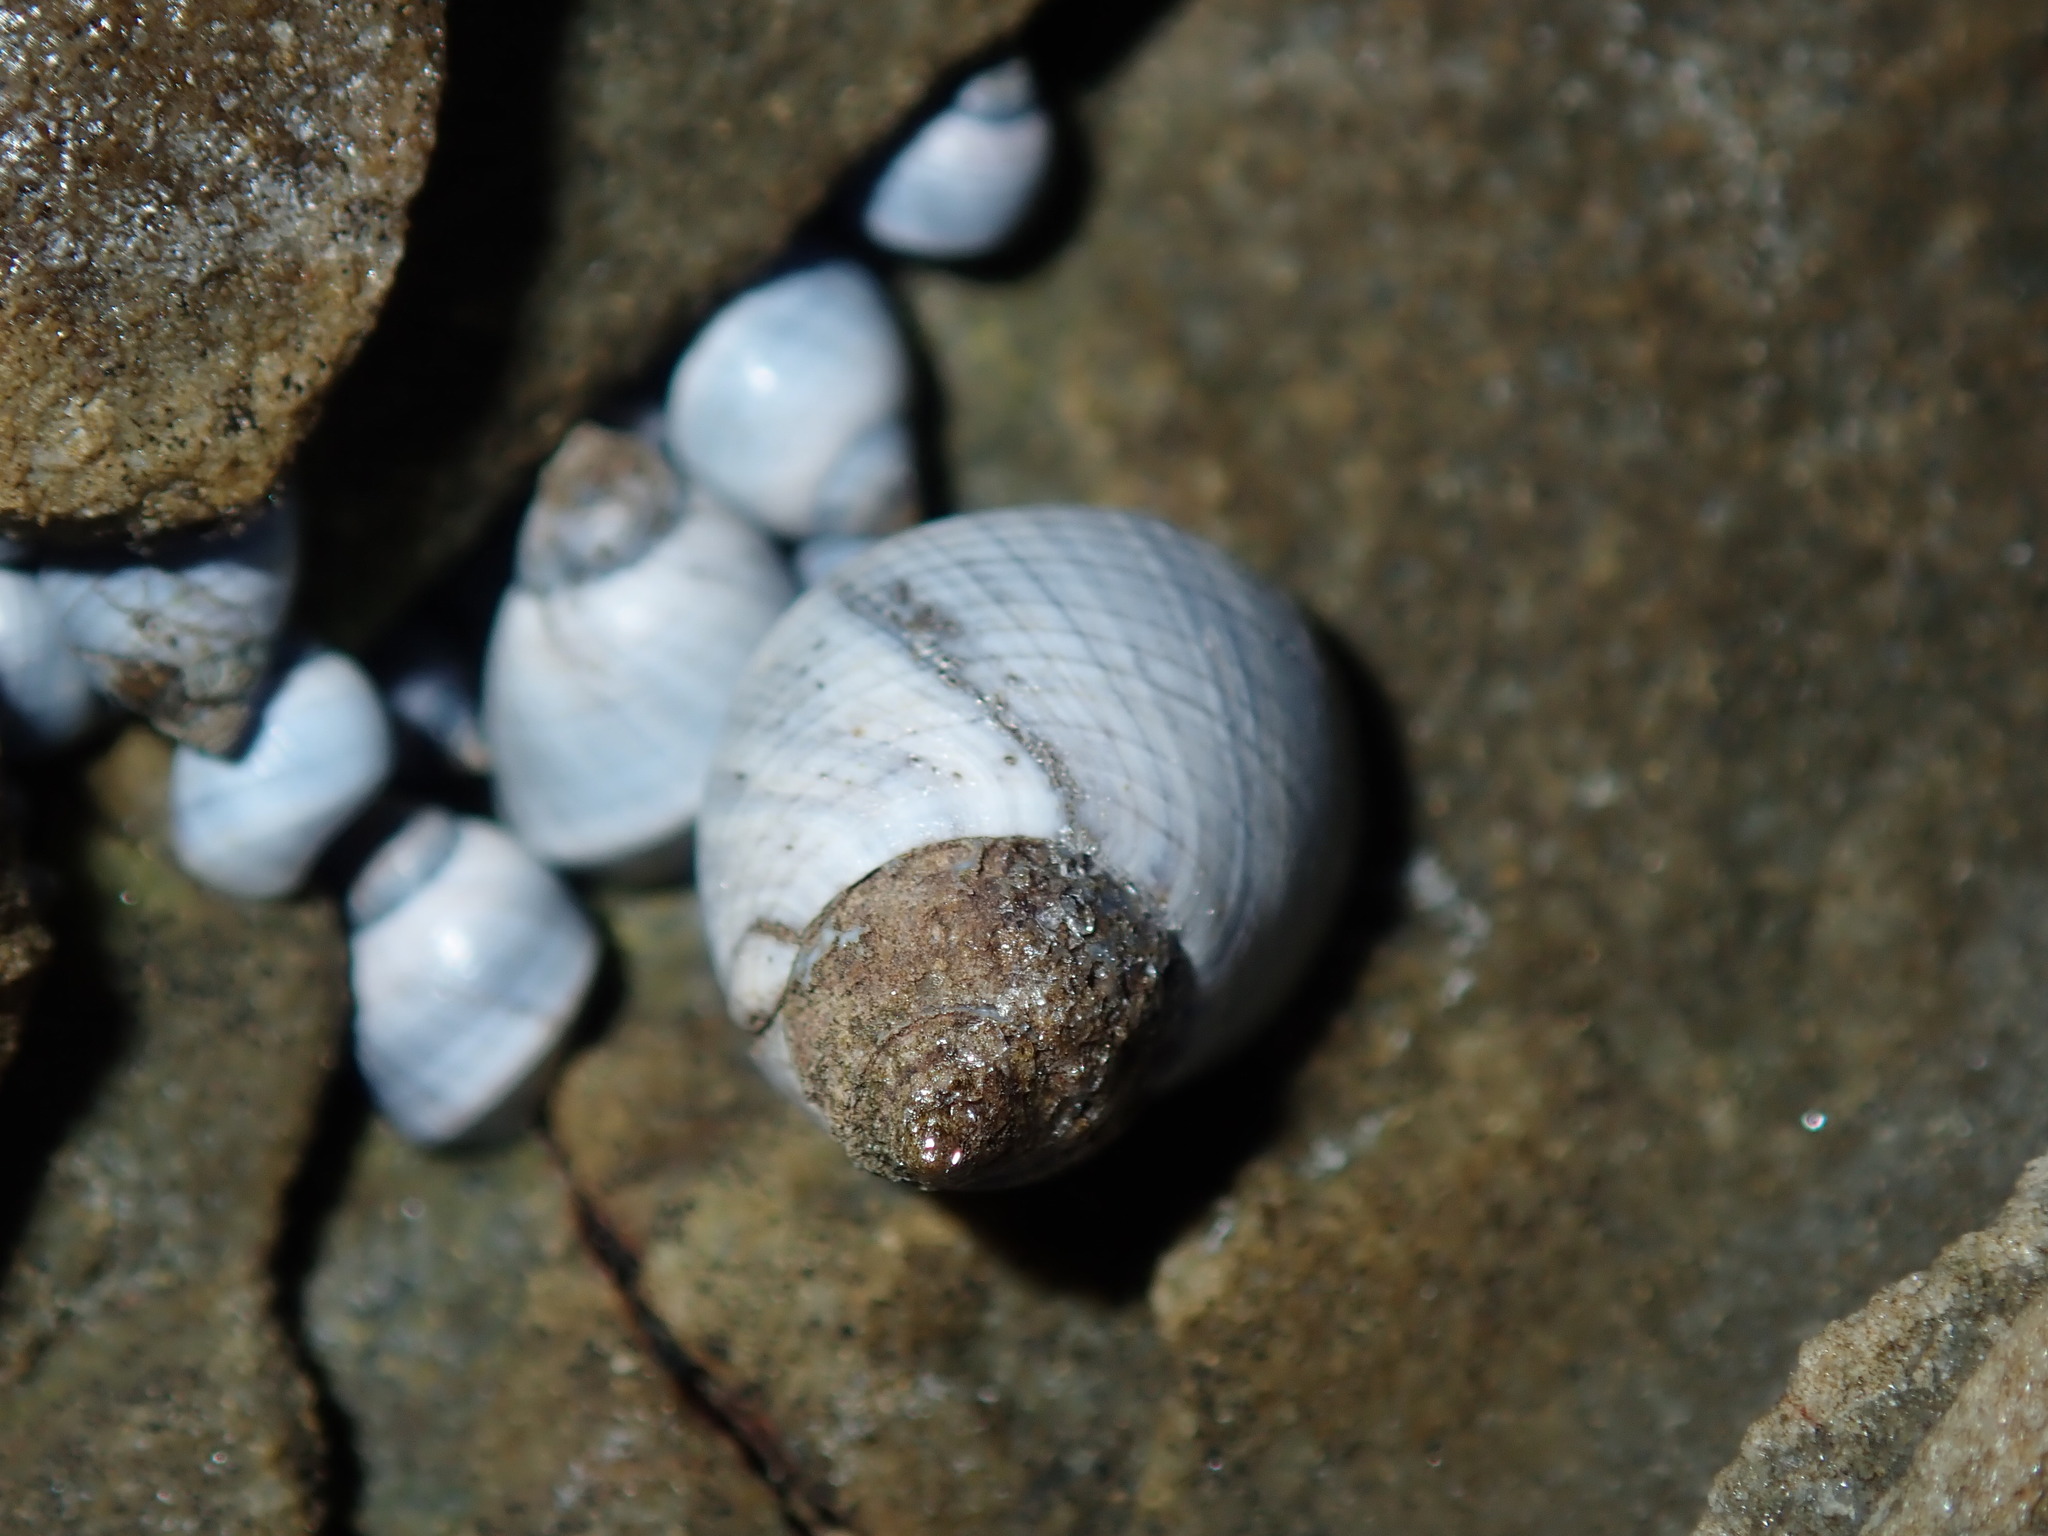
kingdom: Animalia
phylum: Mollusca
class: Gastropoda
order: Littorinimorpha
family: Littorinidae
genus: Austrolittorina
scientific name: Austrolittorina unifasciata
